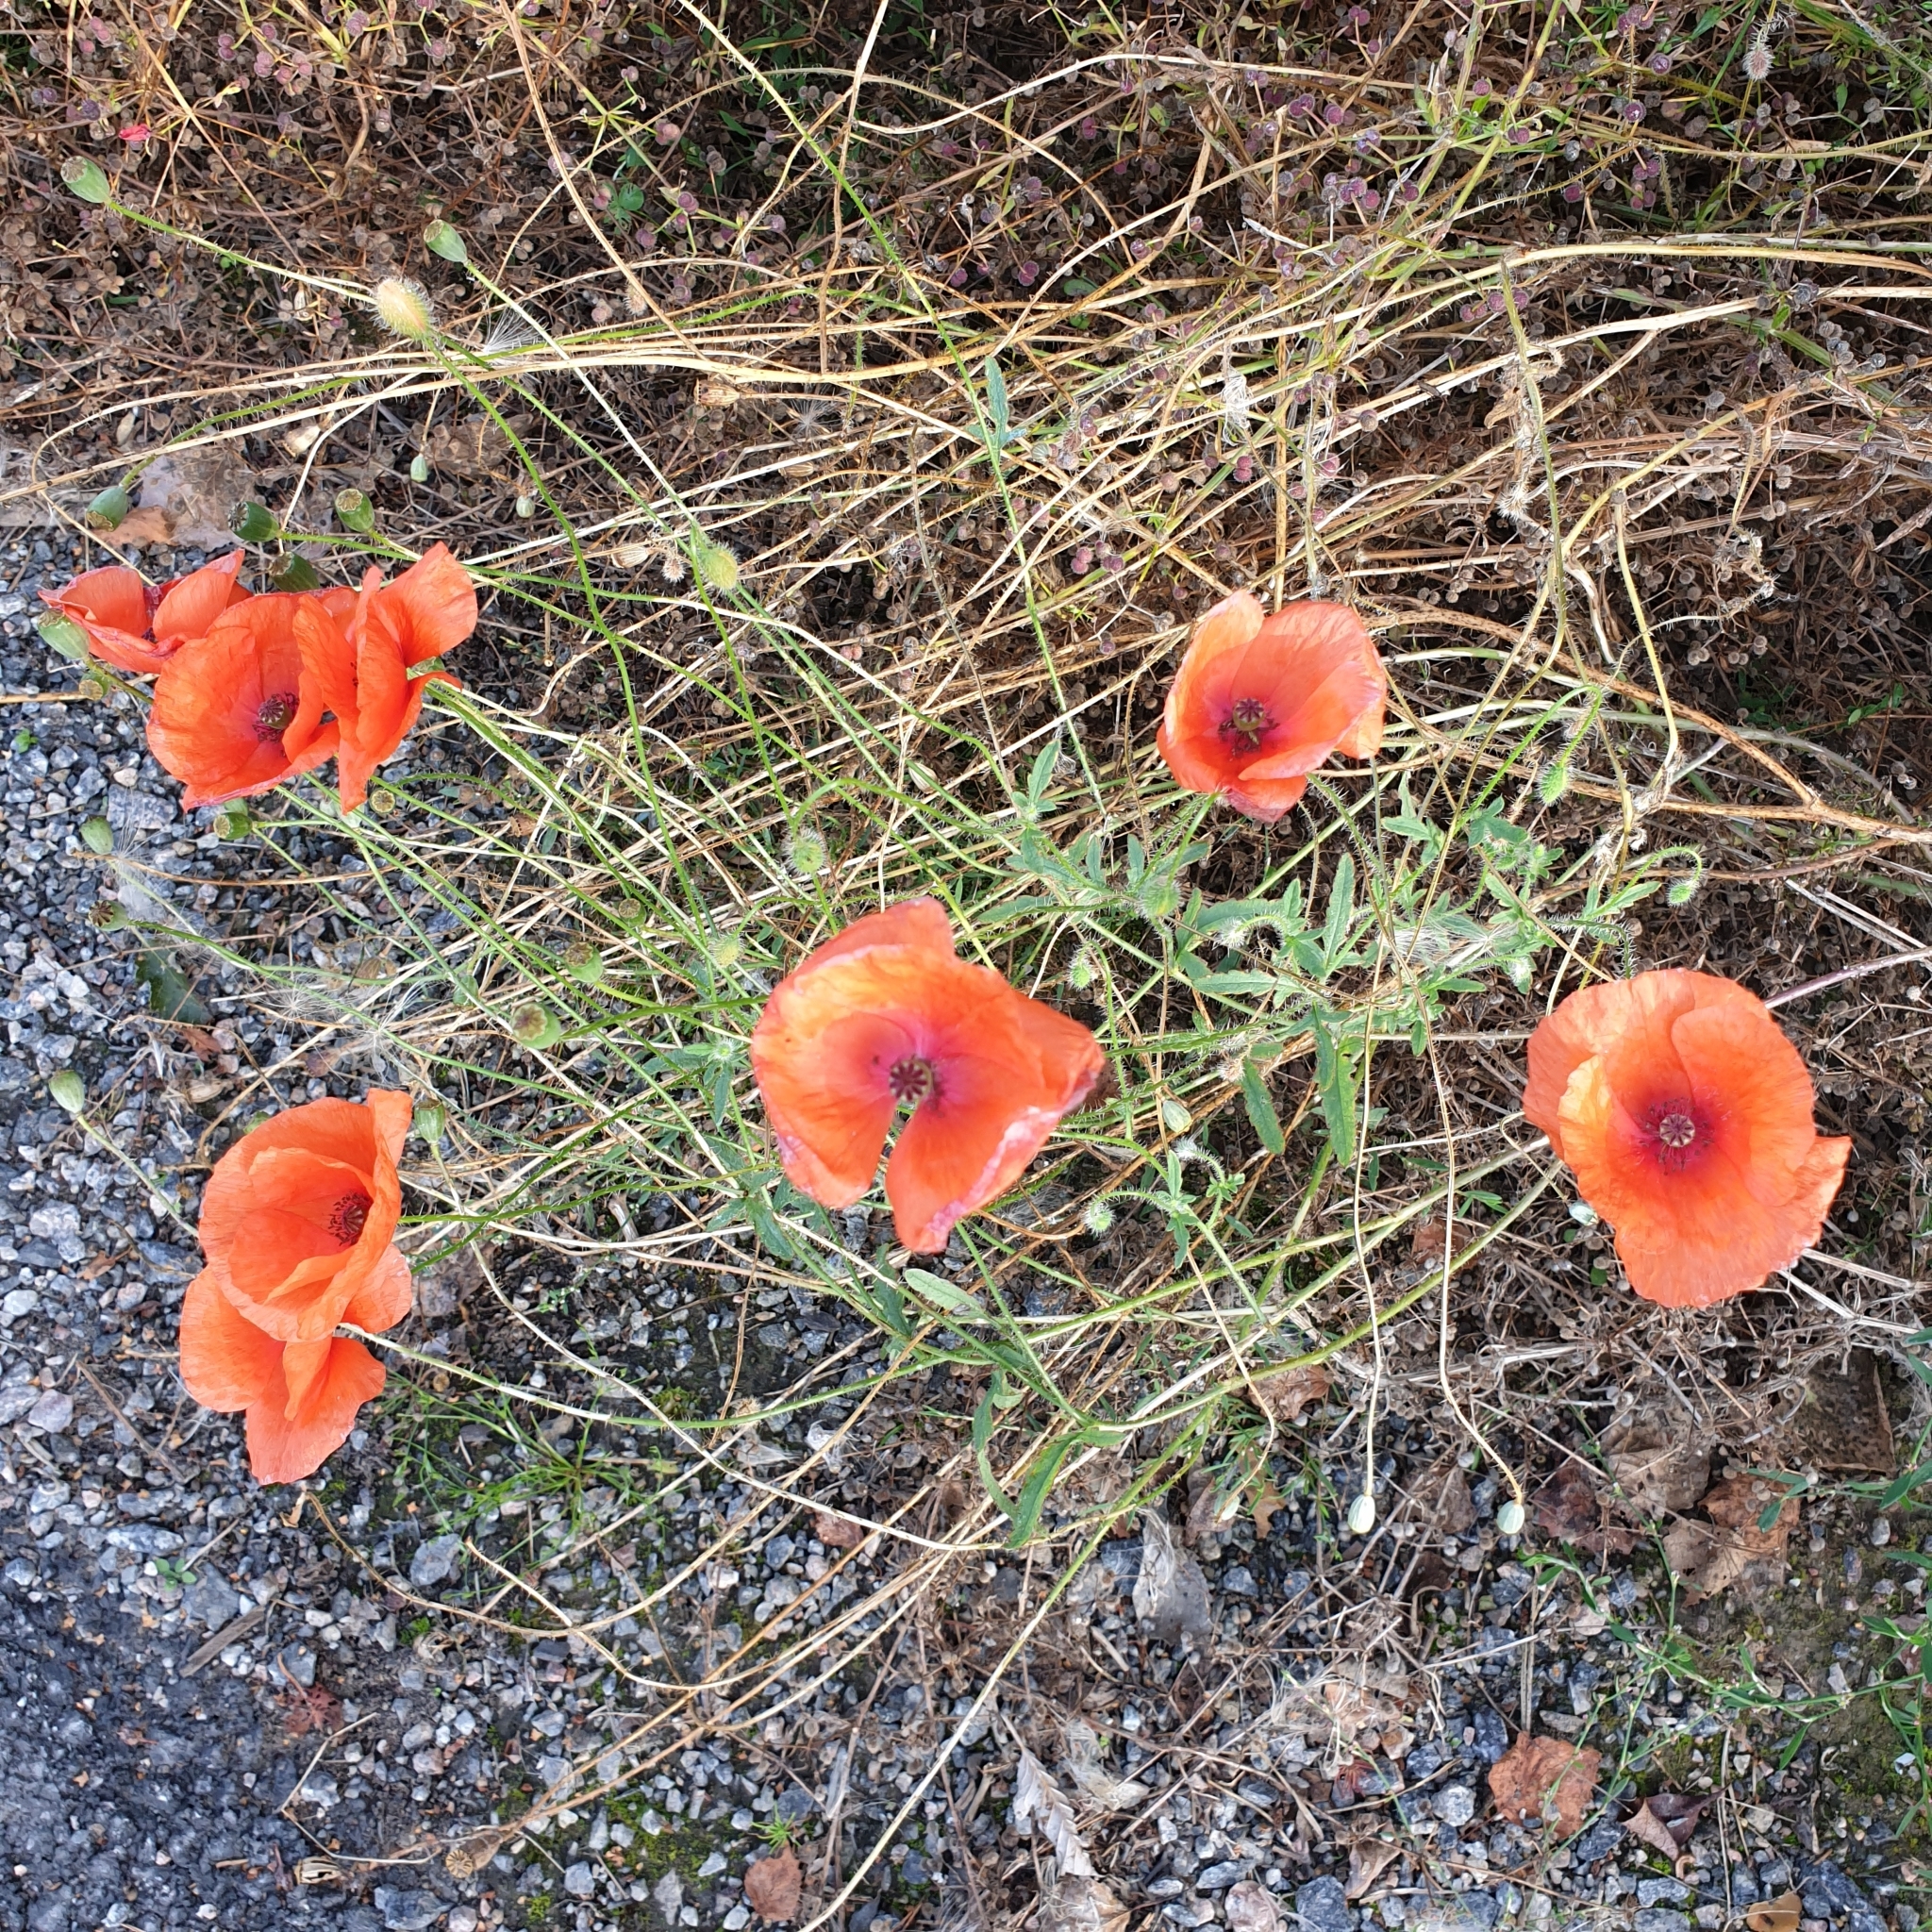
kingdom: Plantae
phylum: Tracheophyta
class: Magnoliopsida
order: Ranunculales
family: Papaveraceae
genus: Papaver
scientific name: Papaver rhoeas
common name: Corn poppy
